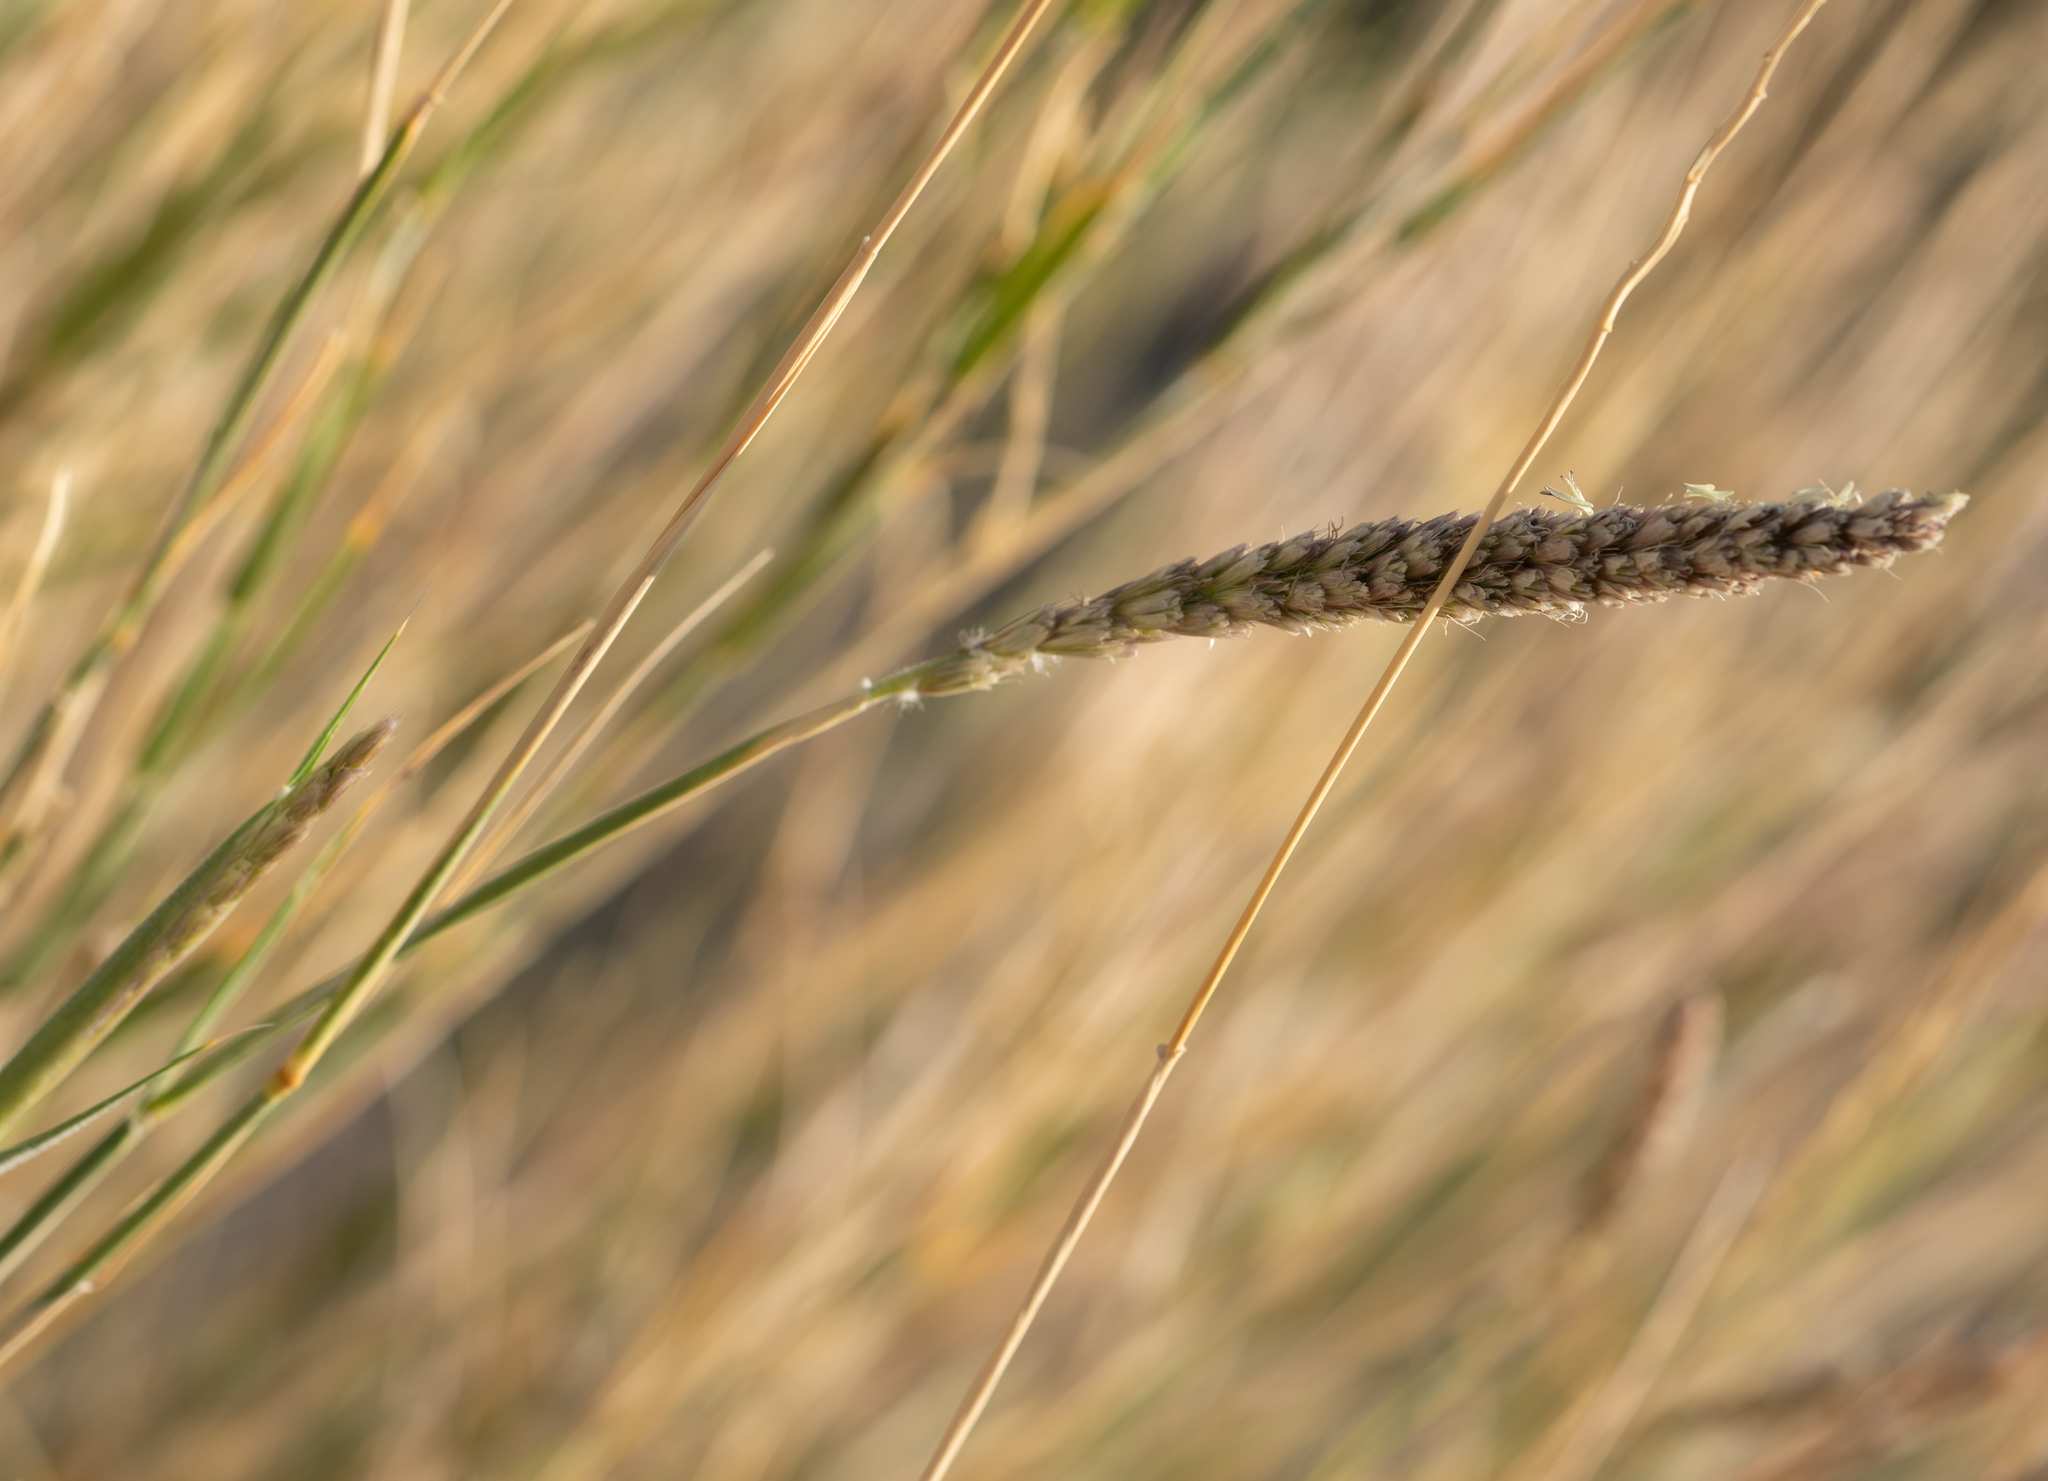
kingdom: Plantae
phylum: Tracheophyta
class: Liliopsida
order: Poales
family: Poaceae
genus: Hilaria
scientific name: Hilaria rigida
